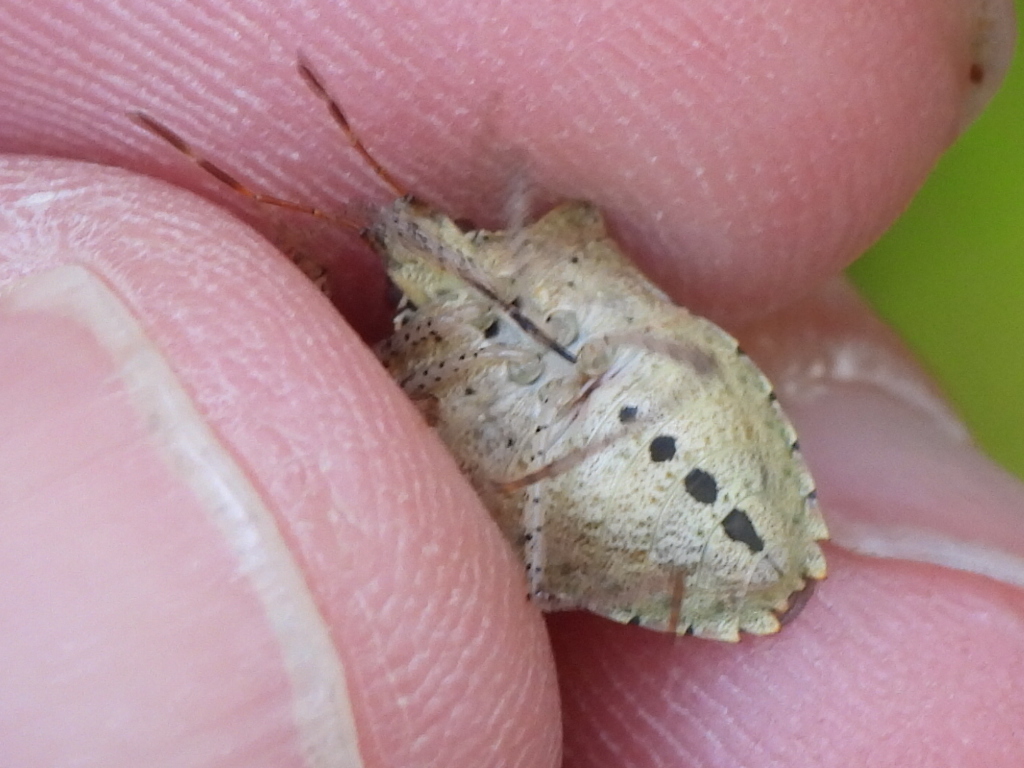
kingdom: Animalia
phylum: Arthropoda
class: Insecta
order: Hemiptera
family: Pentatomidae
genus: Euschistus
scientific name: Euschistus tristigmus
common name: Dusky stink bug
